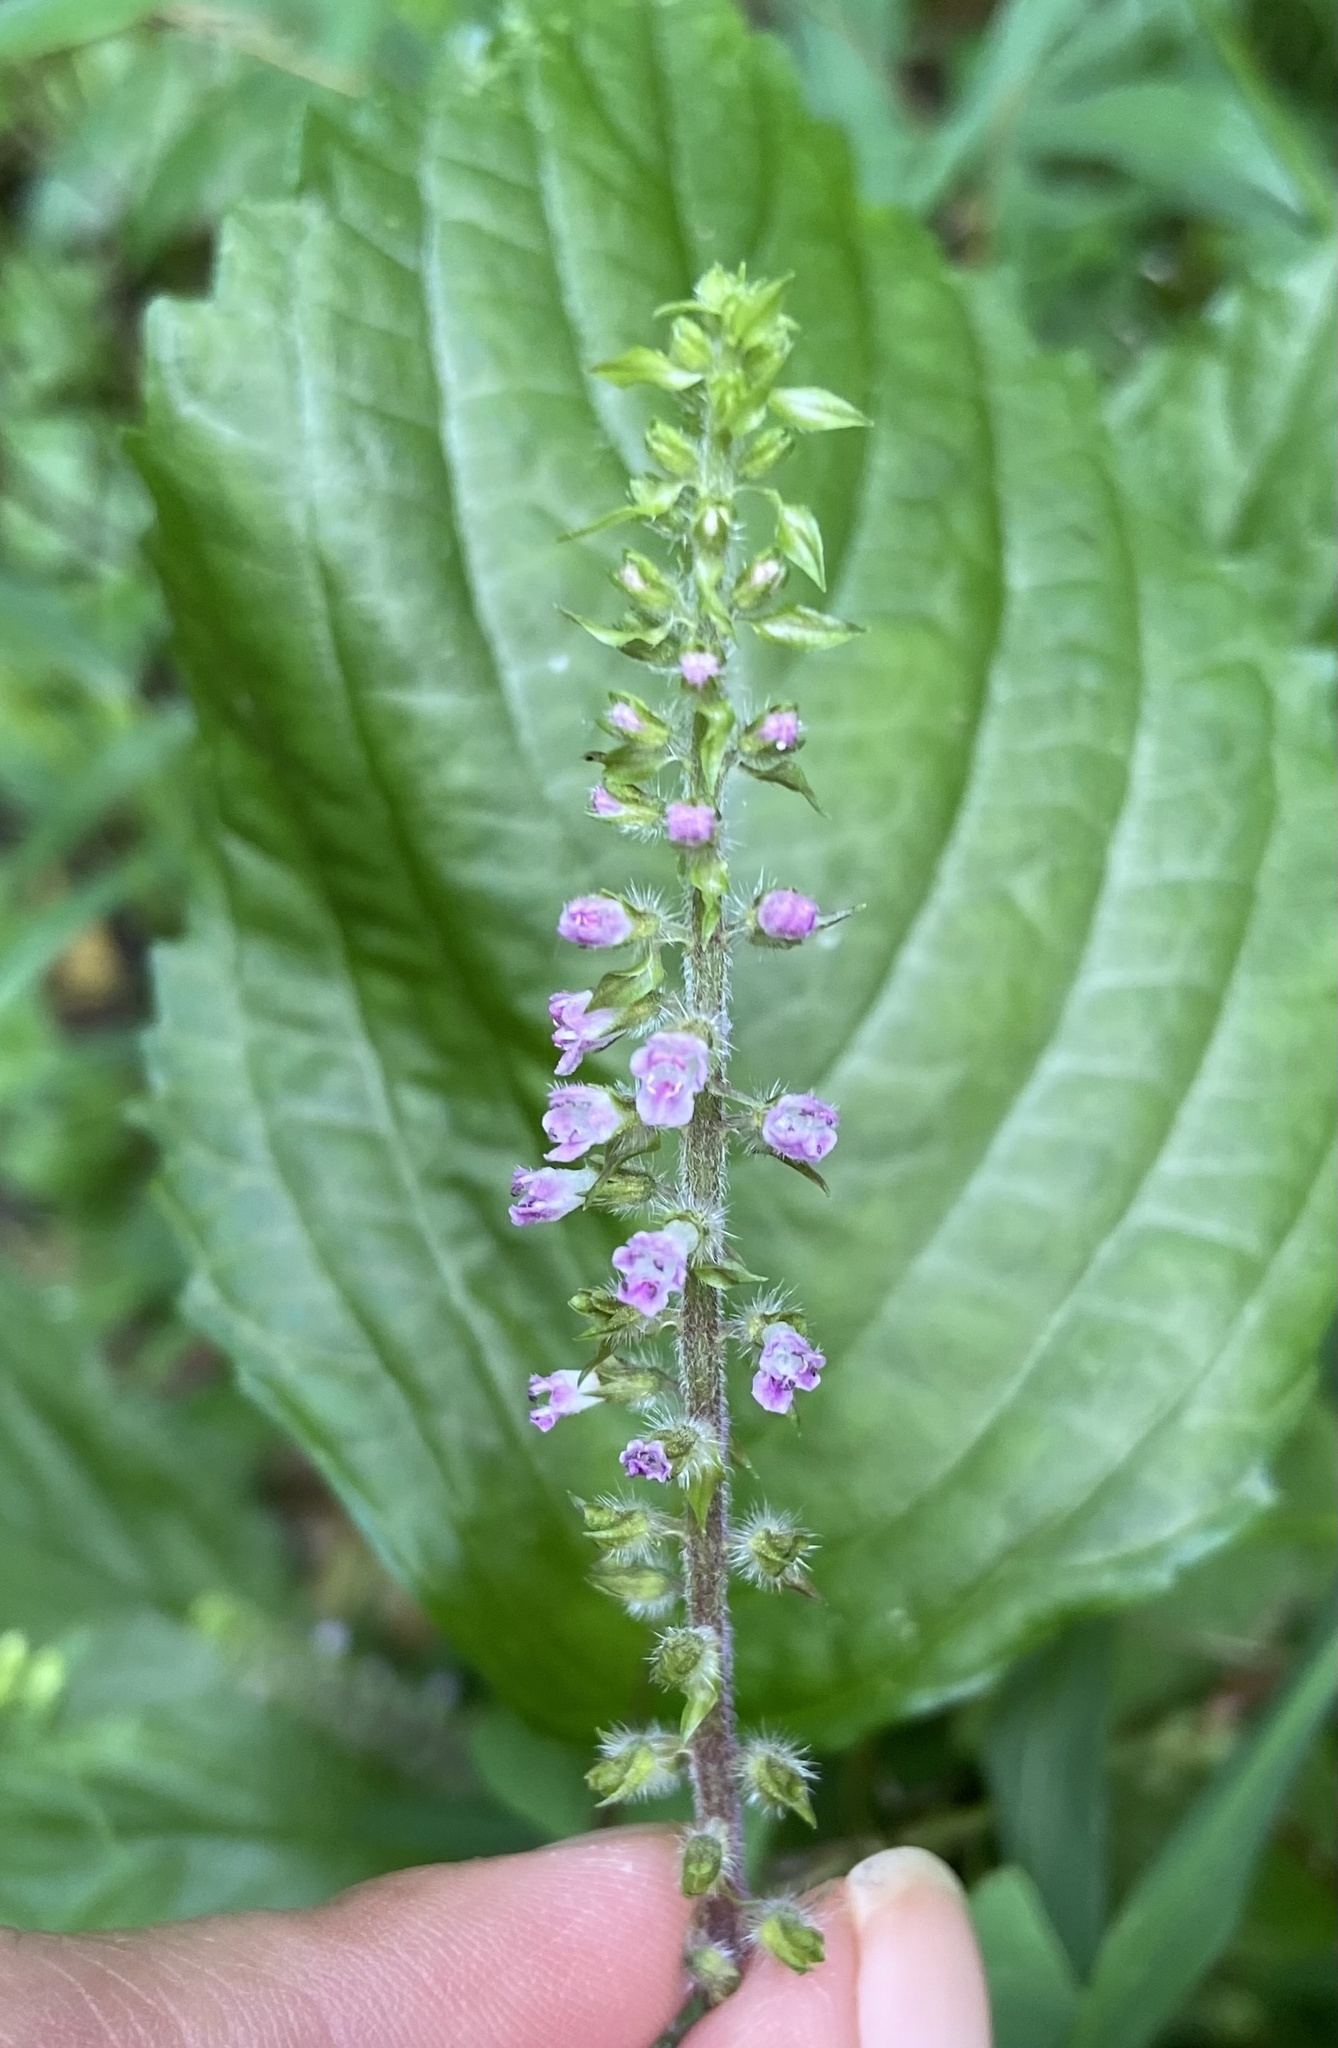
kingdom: Plantae
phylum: Tracheophyta
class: Magnoliopsida
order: Lamiales
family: Lamiaceae
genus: Perilla
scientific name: Perilla frutescens
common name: Perilla
